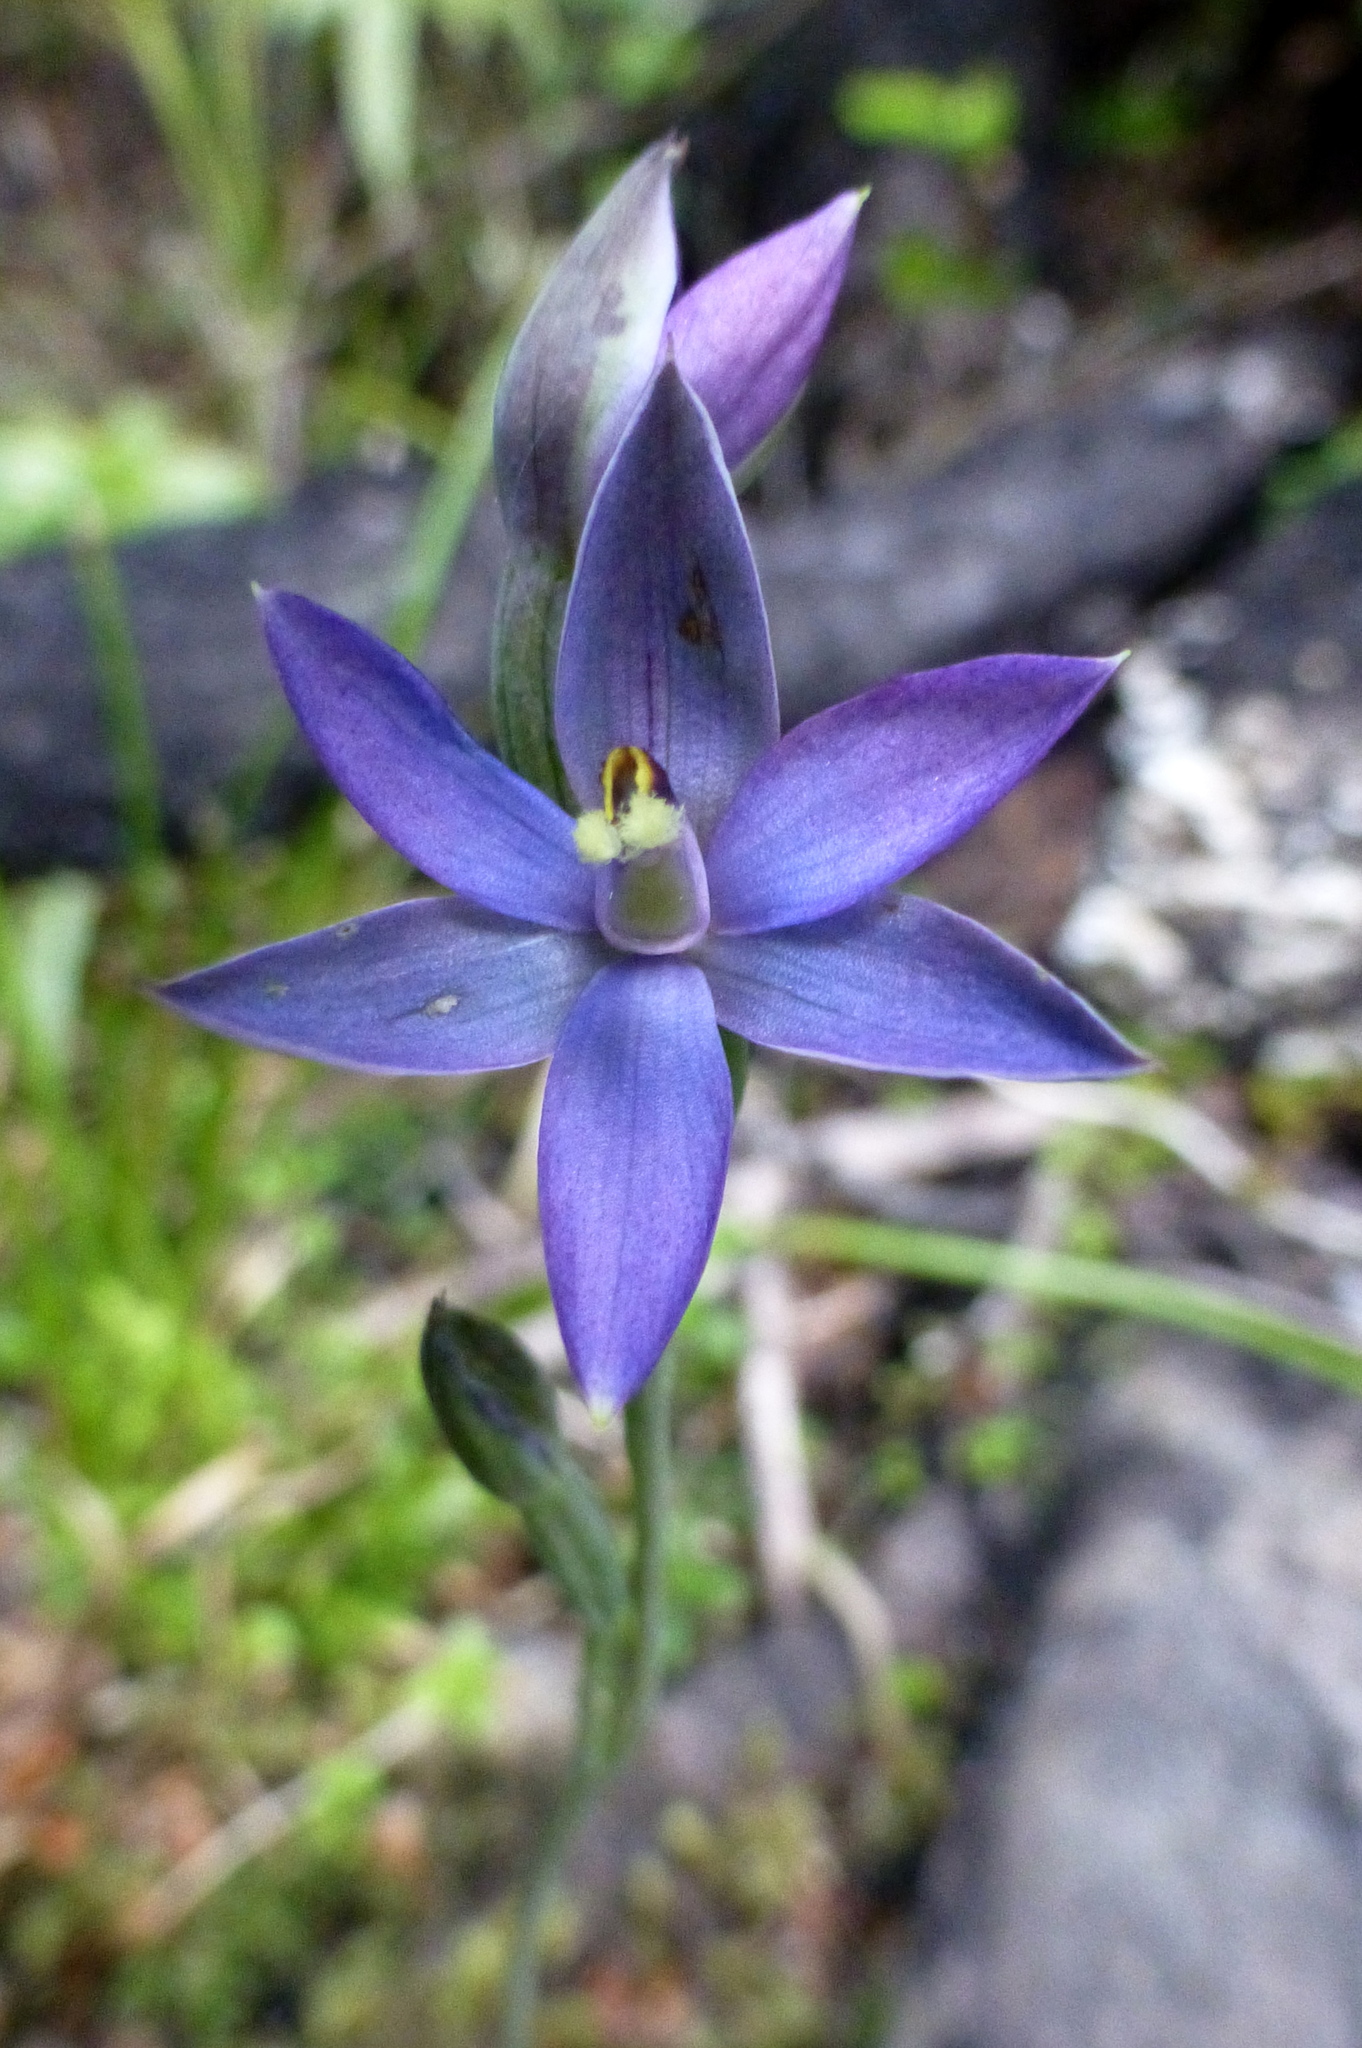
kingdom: Plantae
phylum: Tracheophyta
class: Liliopsida
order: Asparagales
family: Orchidaceae
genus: Thelymitra
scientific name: Thelymitra hatchii
